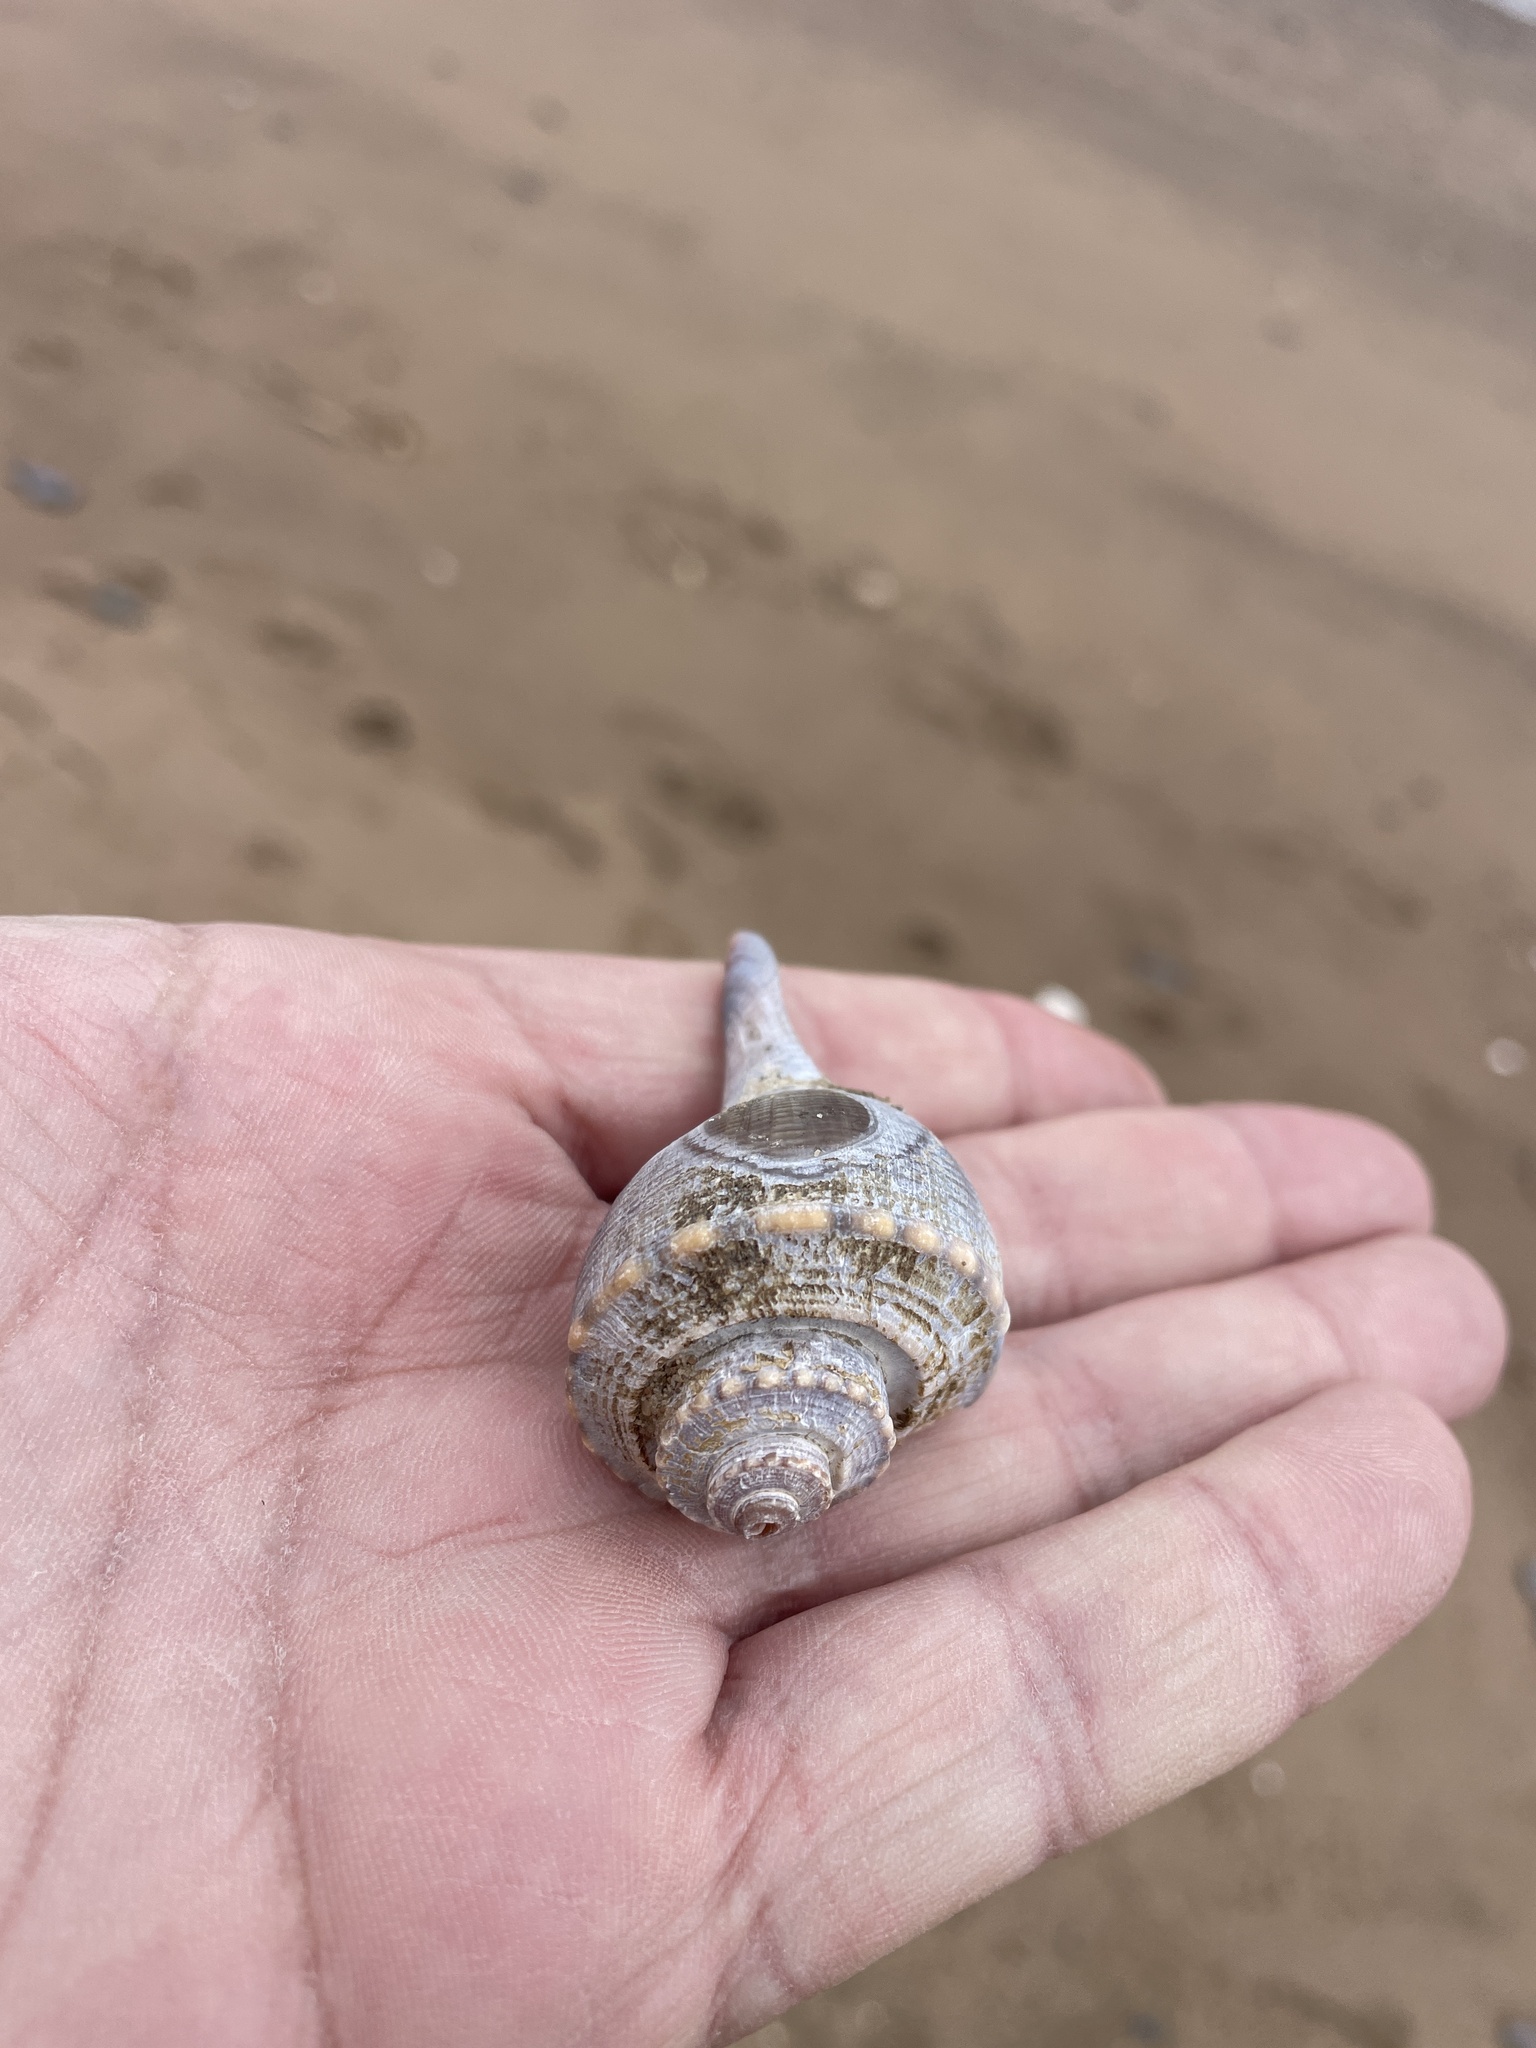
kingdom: Animalia
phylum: Mollusca
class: Gastropoda
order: Neogastropoda
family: Busyconidae
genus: Busycotypus
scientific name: Busycotypus canaliculatus
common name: Channeled whelk
